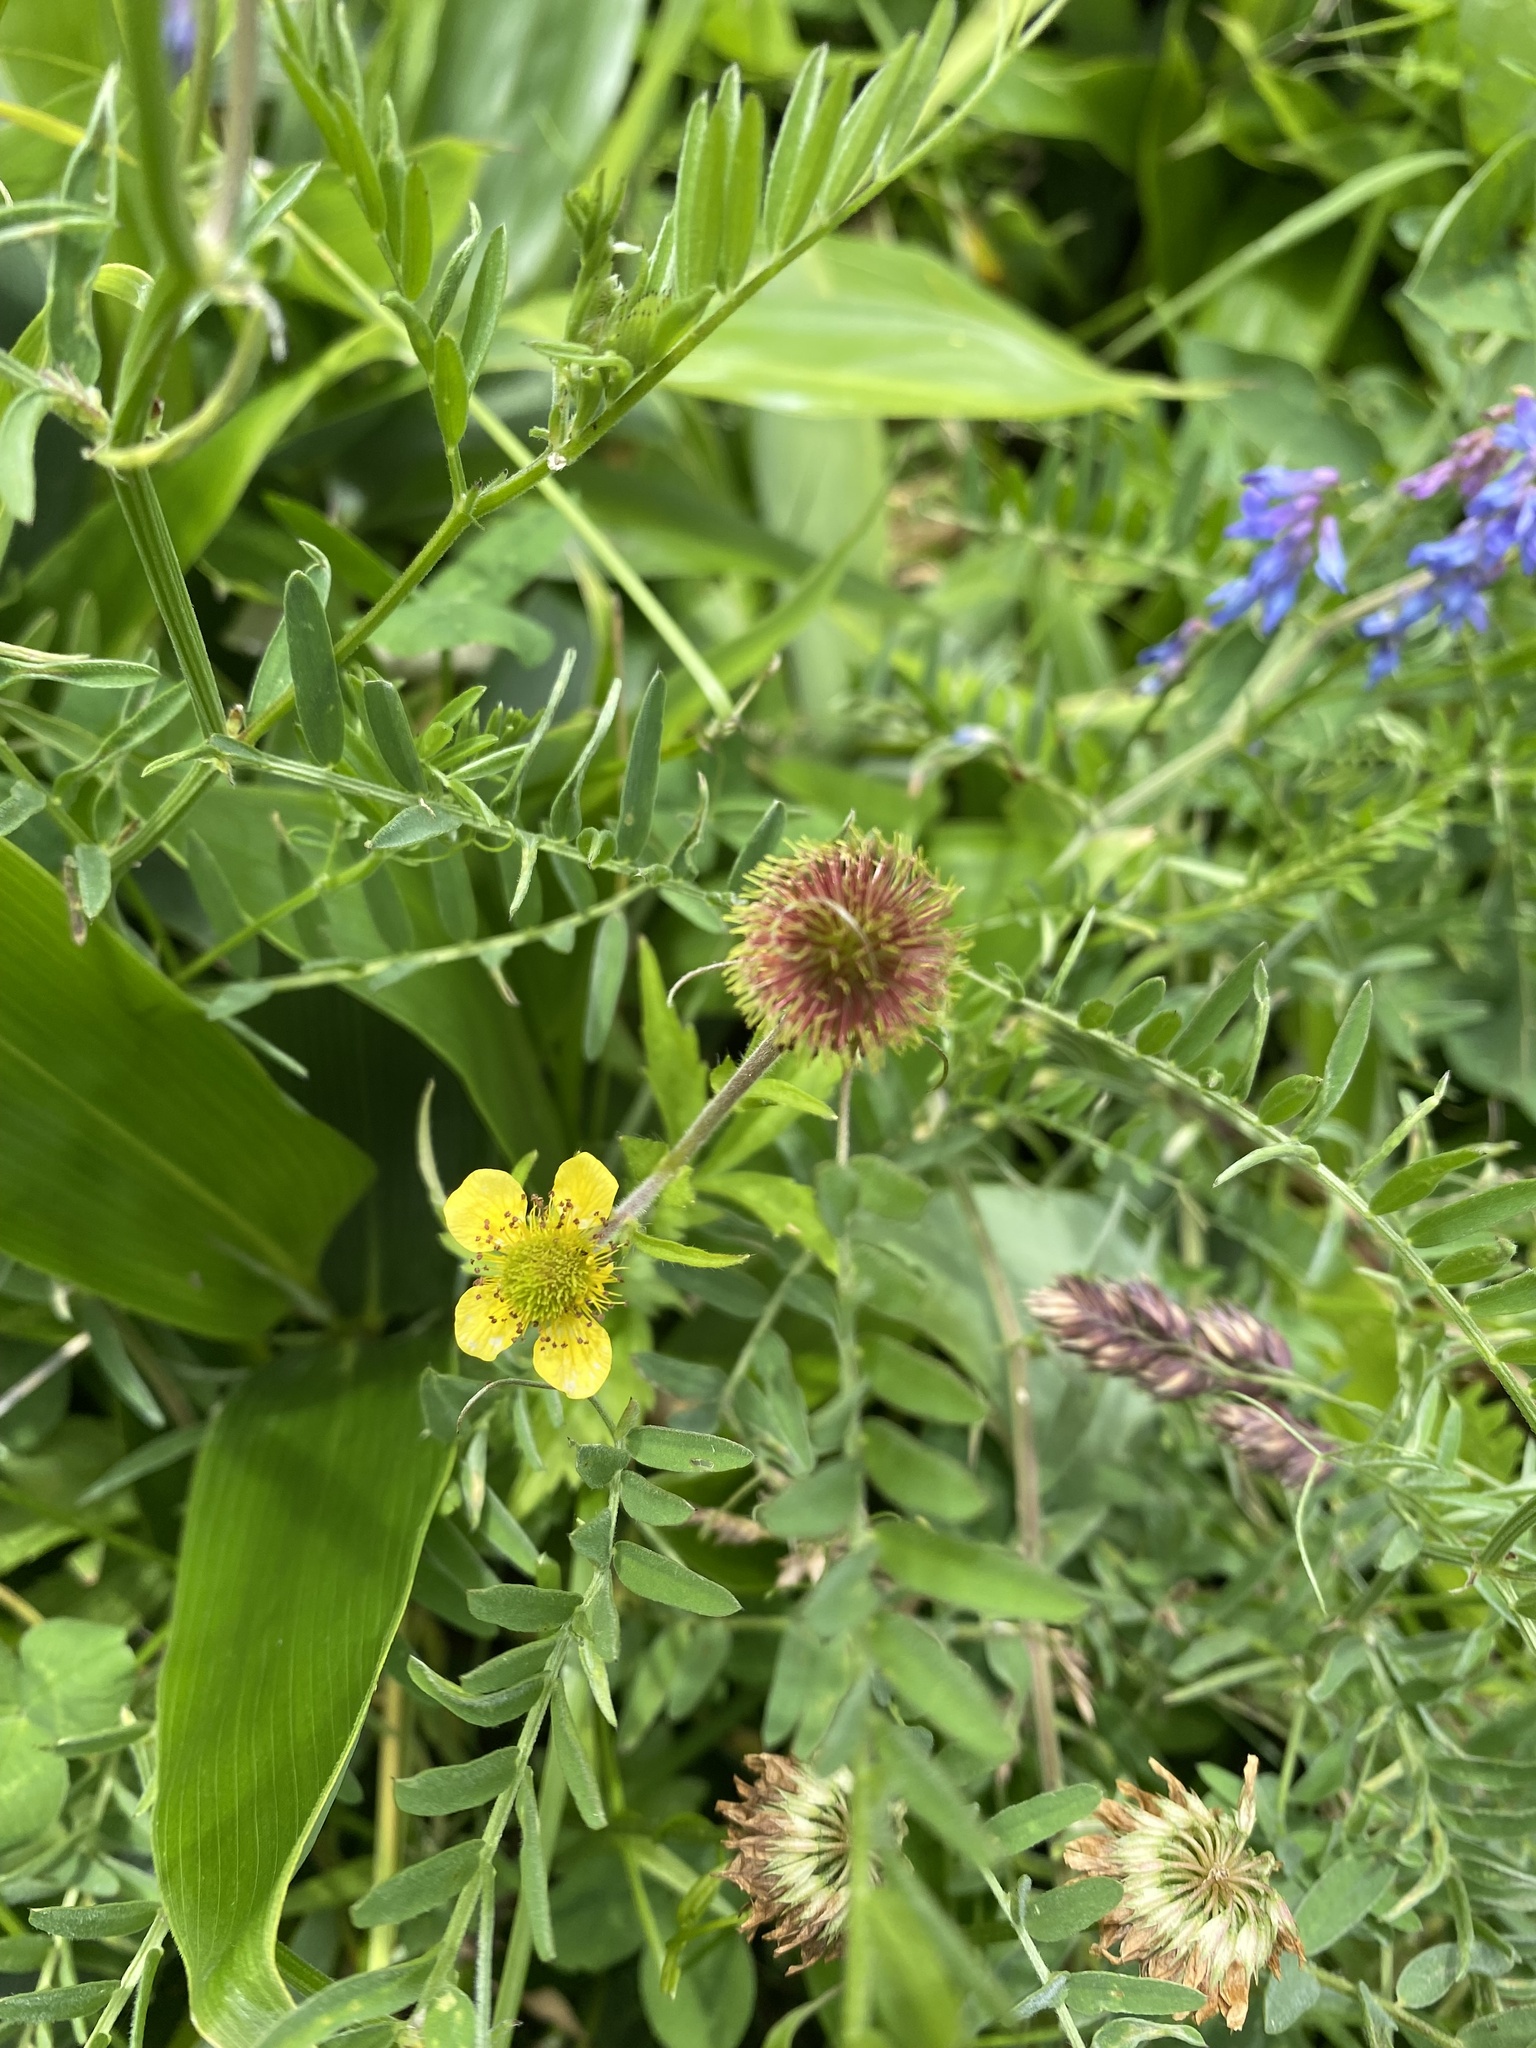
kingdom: Plantae
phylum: Tracheophyta
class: Magnoliopsida
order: Rosales
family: Rosaceae
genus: Geum
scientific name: Geum aleppicum
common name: Yellow avens
